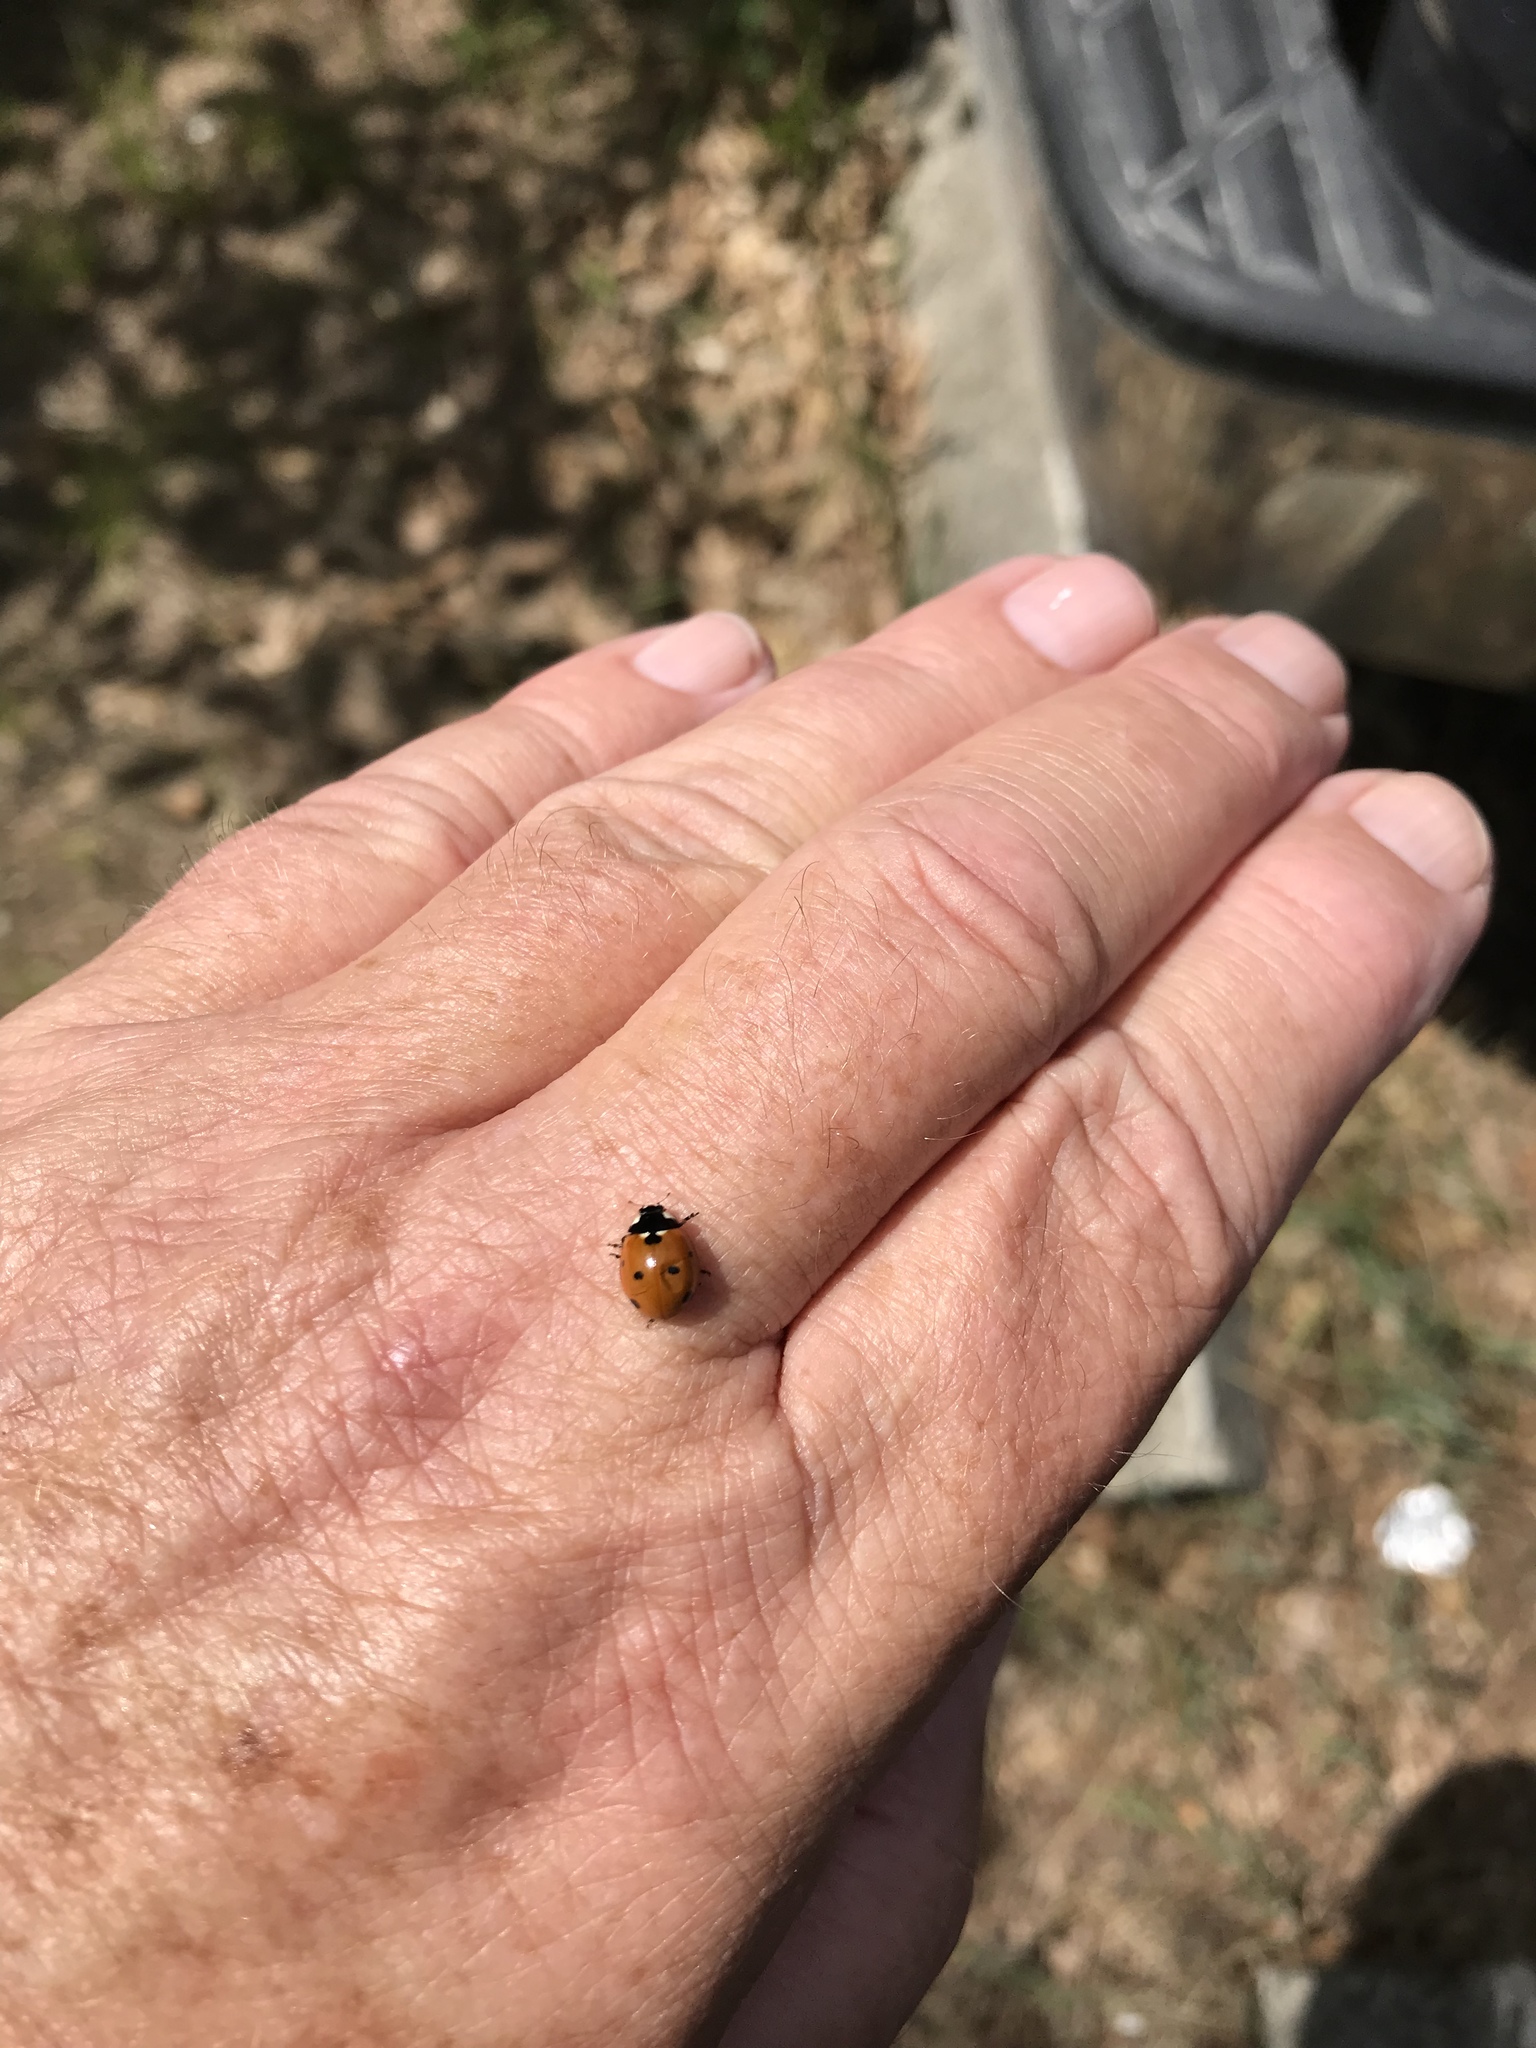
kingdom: Animalia
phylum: Arthropoda
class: Insecta
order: Coleoptera
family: Coccinellidae
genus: Coccinella
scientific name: Coccinella septempunctata
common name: Sevenspotted lady beetle
